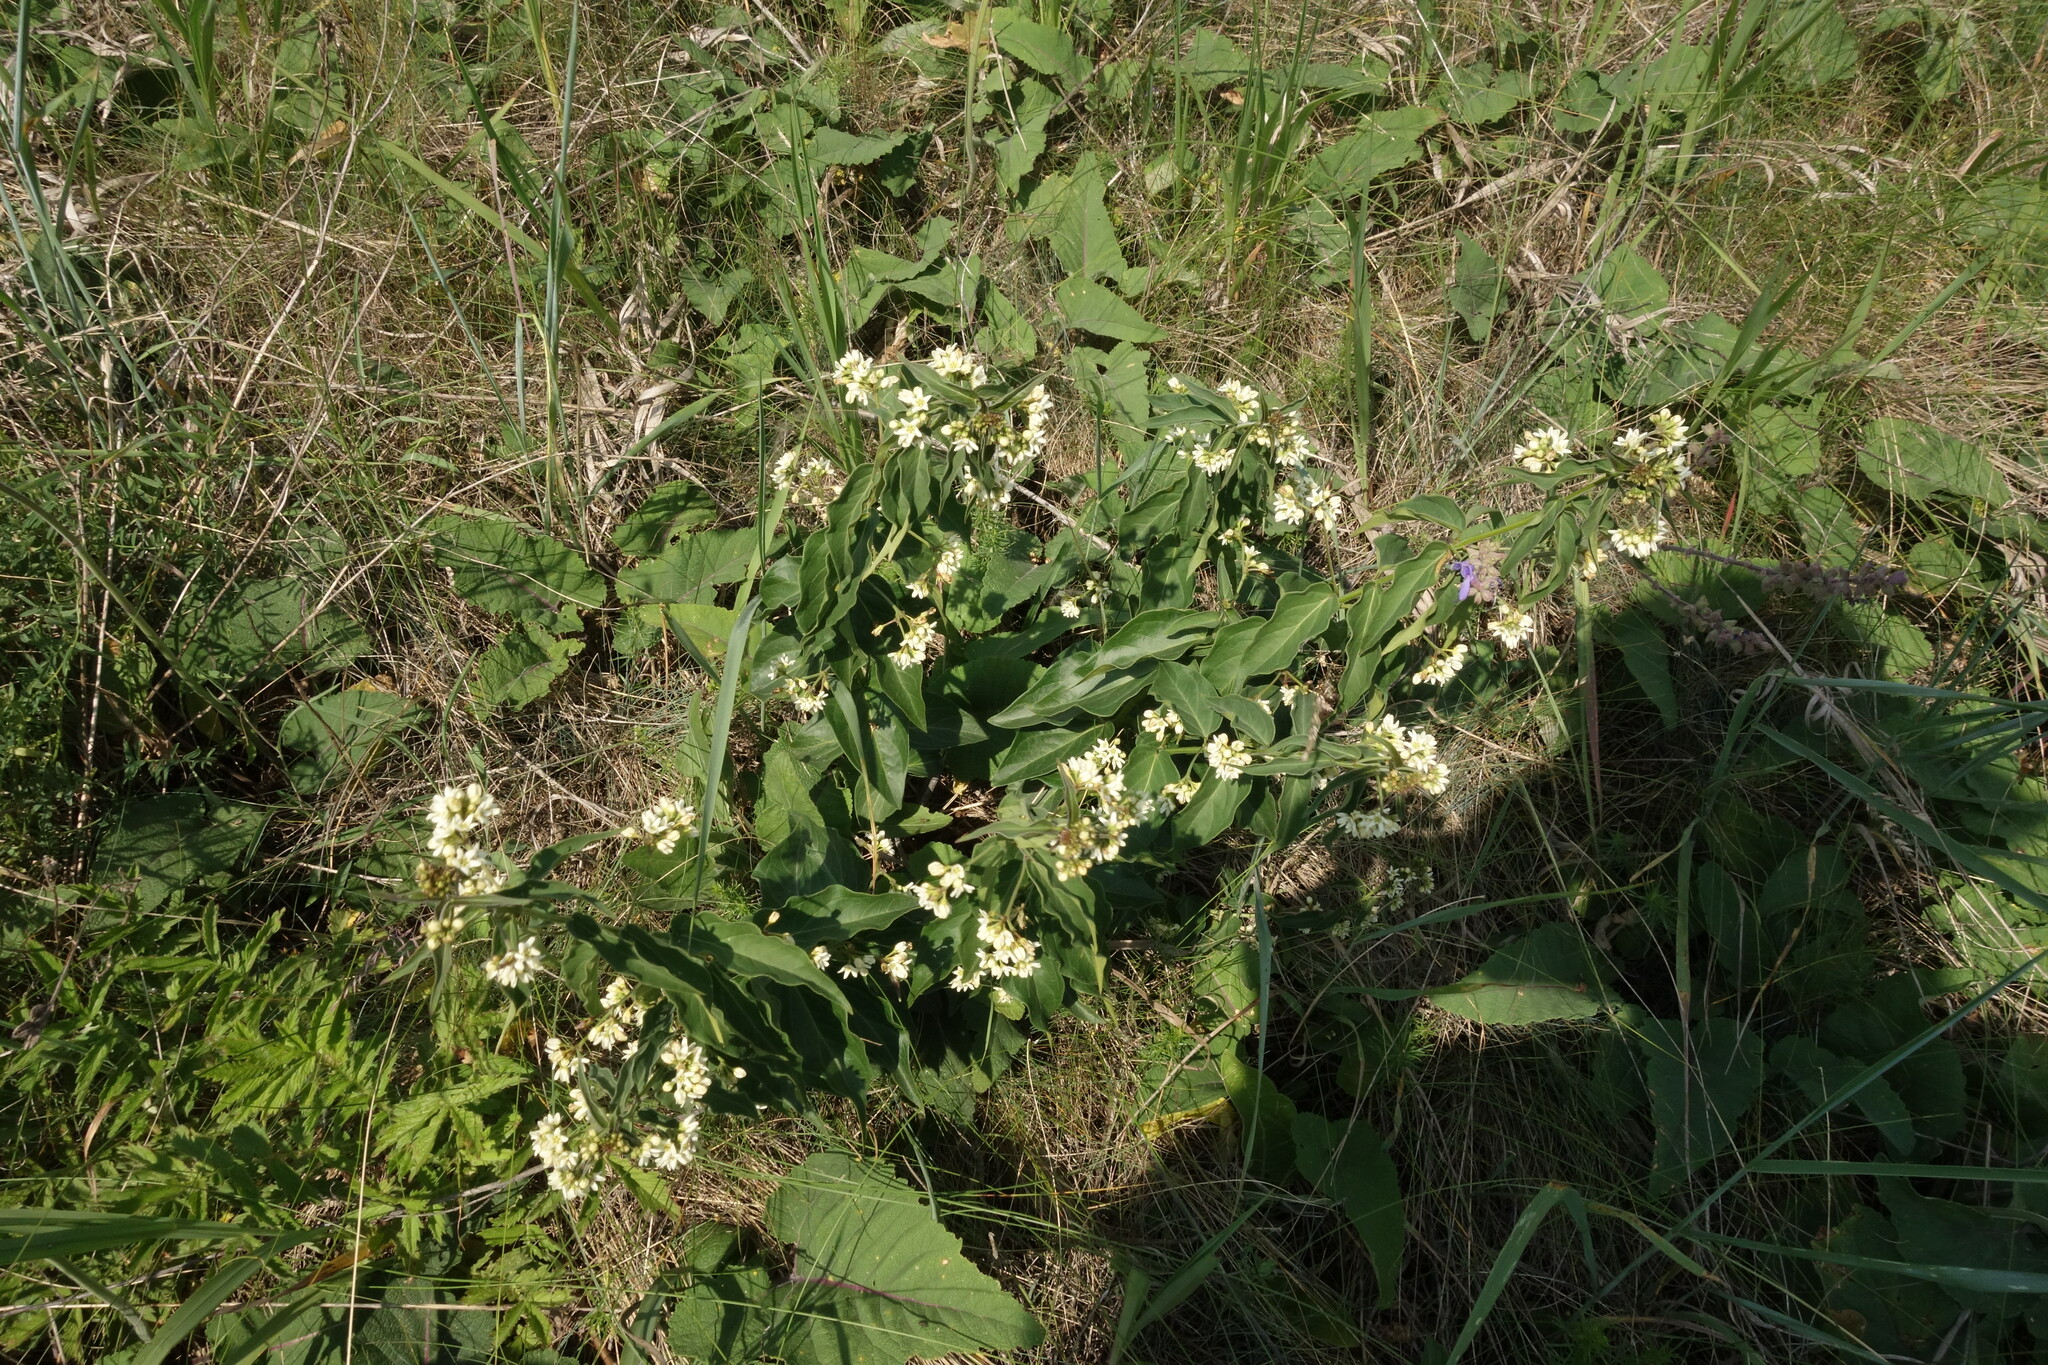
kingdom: Plantae
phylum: Tracheophyta
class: Magnoliopsida
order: Gentianales
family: Apocynaceae
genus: Vincetoxicum
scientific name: Vincetoxicum hirundinaria
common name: White swallowwort
